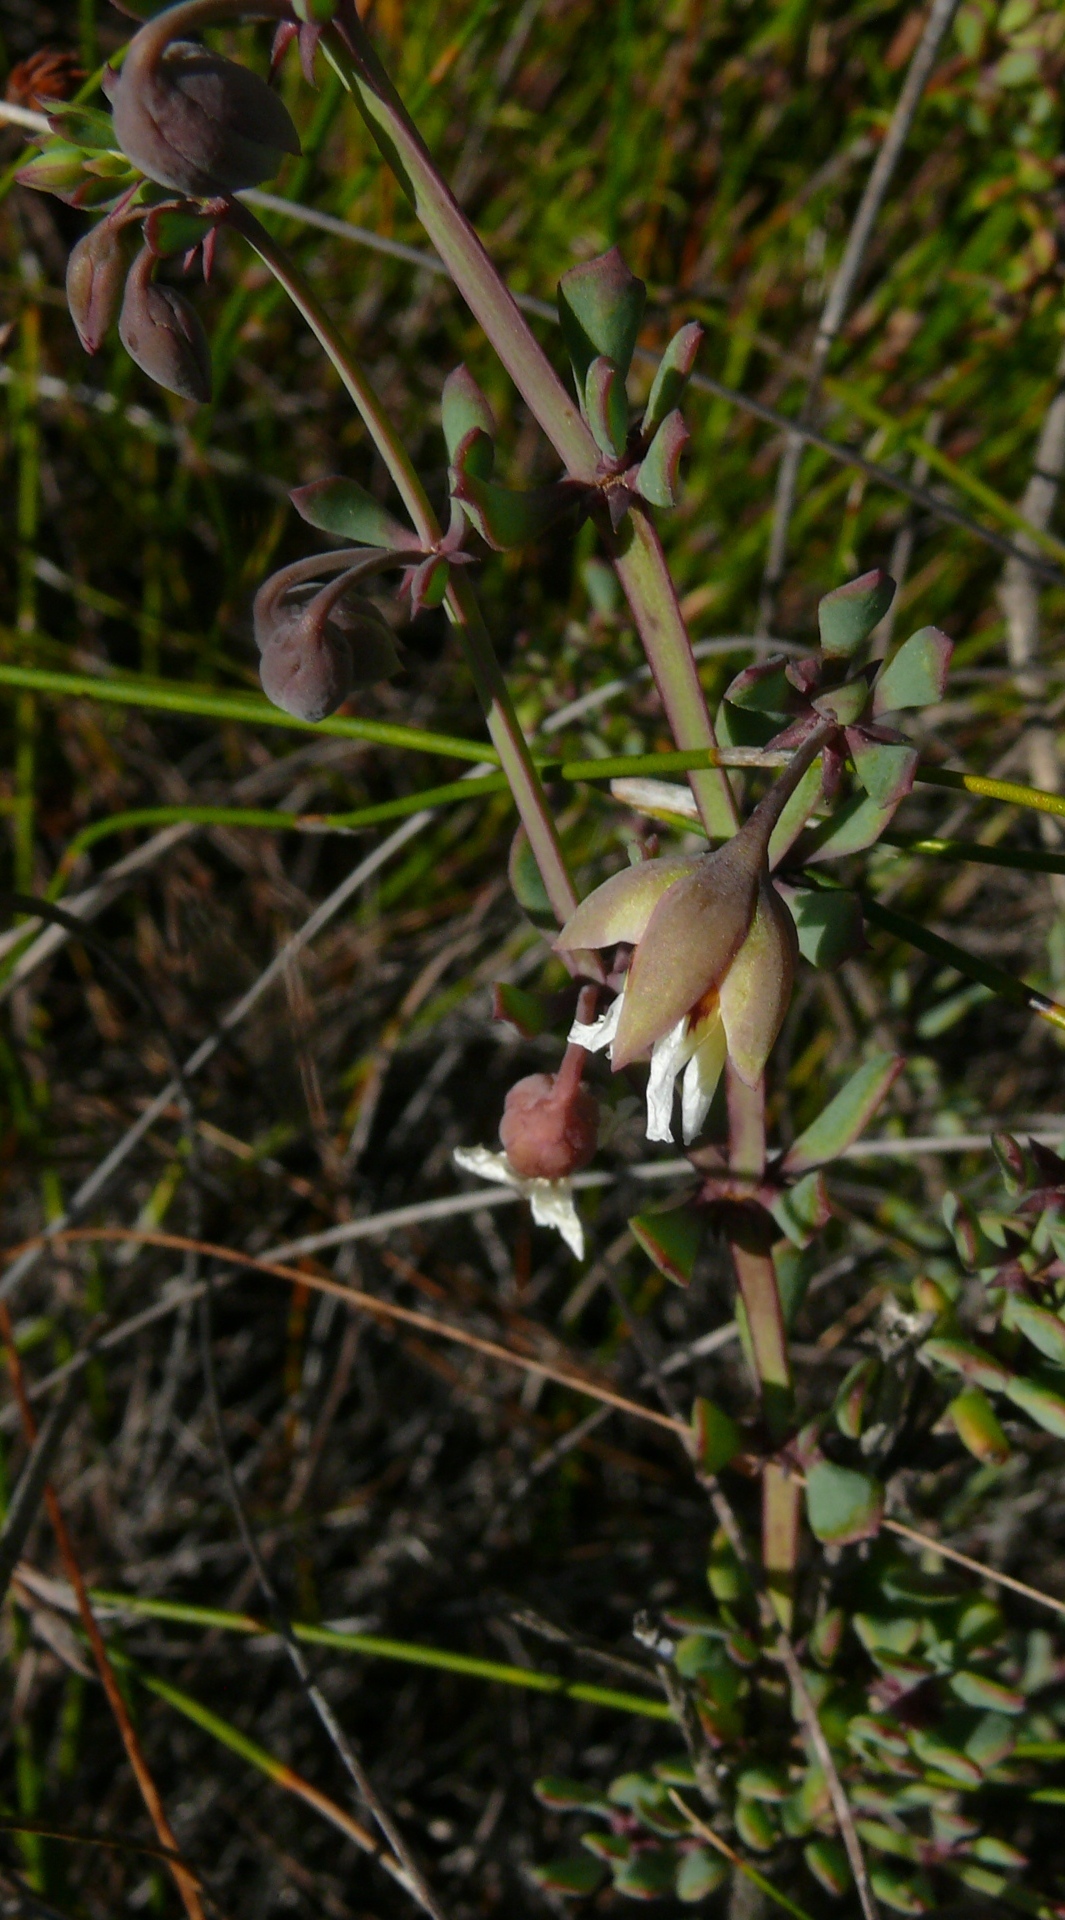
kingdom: Plantae
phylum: Tracheophyta
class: Magnoliopsida
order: Zygophyllales
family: Zygophyllaceae
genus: Roepera
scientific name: Roepera fulva
